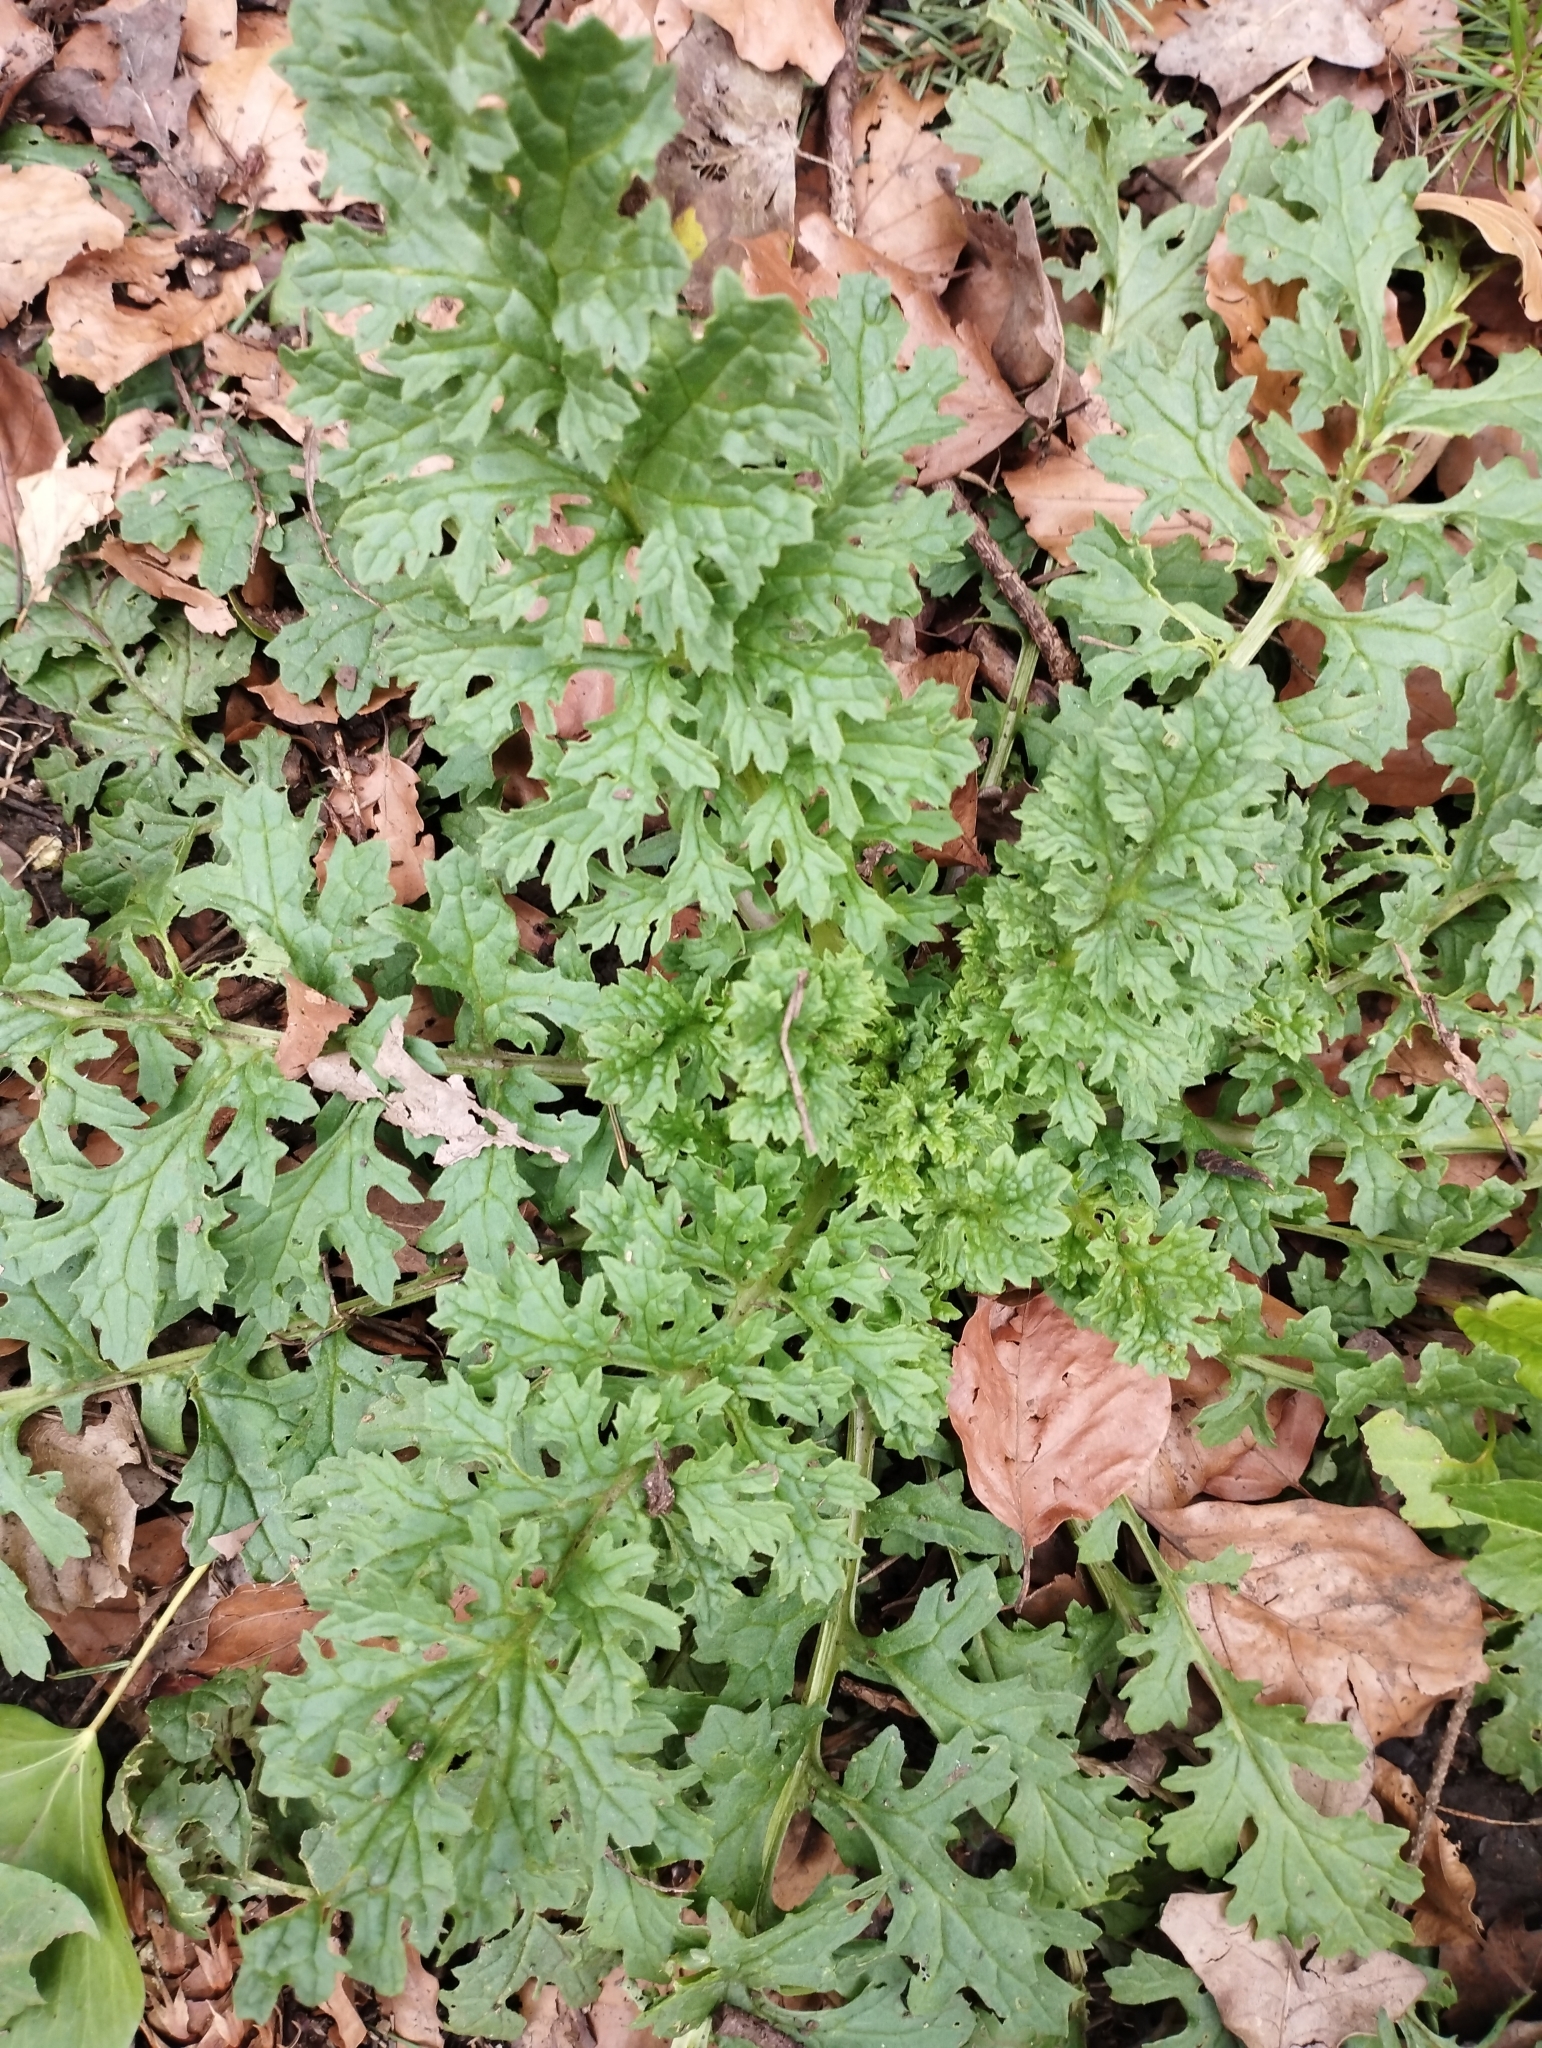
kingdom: Plantae
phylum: Tracheophyta
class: Magnoliopsida
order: Asterales
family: Asteraceae
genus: Jacobaea
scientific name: Jacobaea vulgaris
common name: Stinking willie
